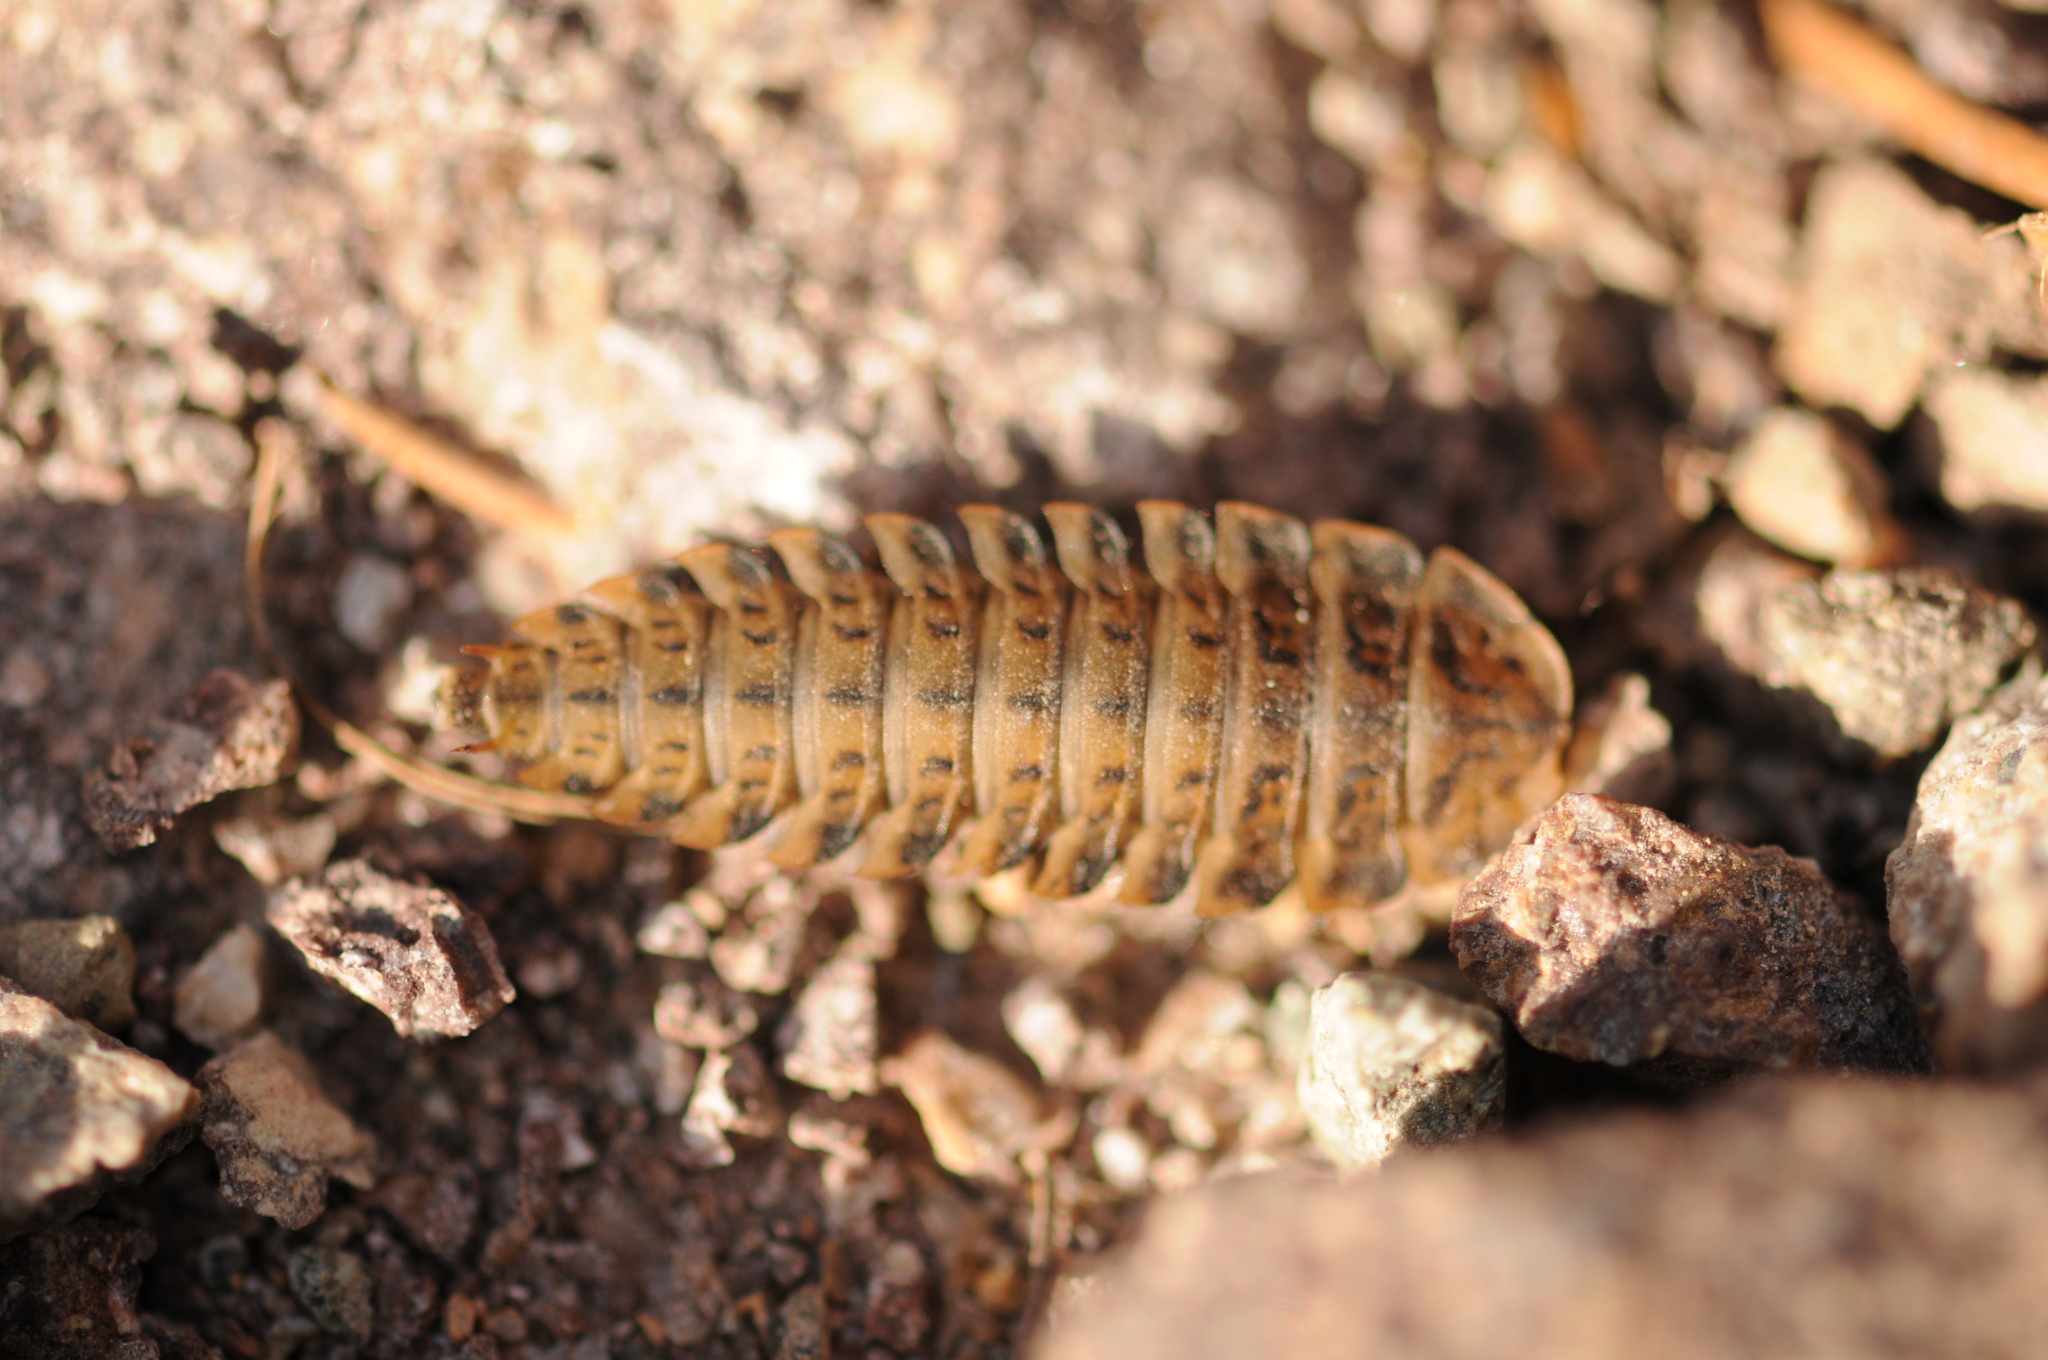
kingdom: Animalia
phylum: Arthropoda
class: Insecta
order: Coleoptera
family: Staphylinidae
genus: Silpha
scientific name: Silpha obscura
